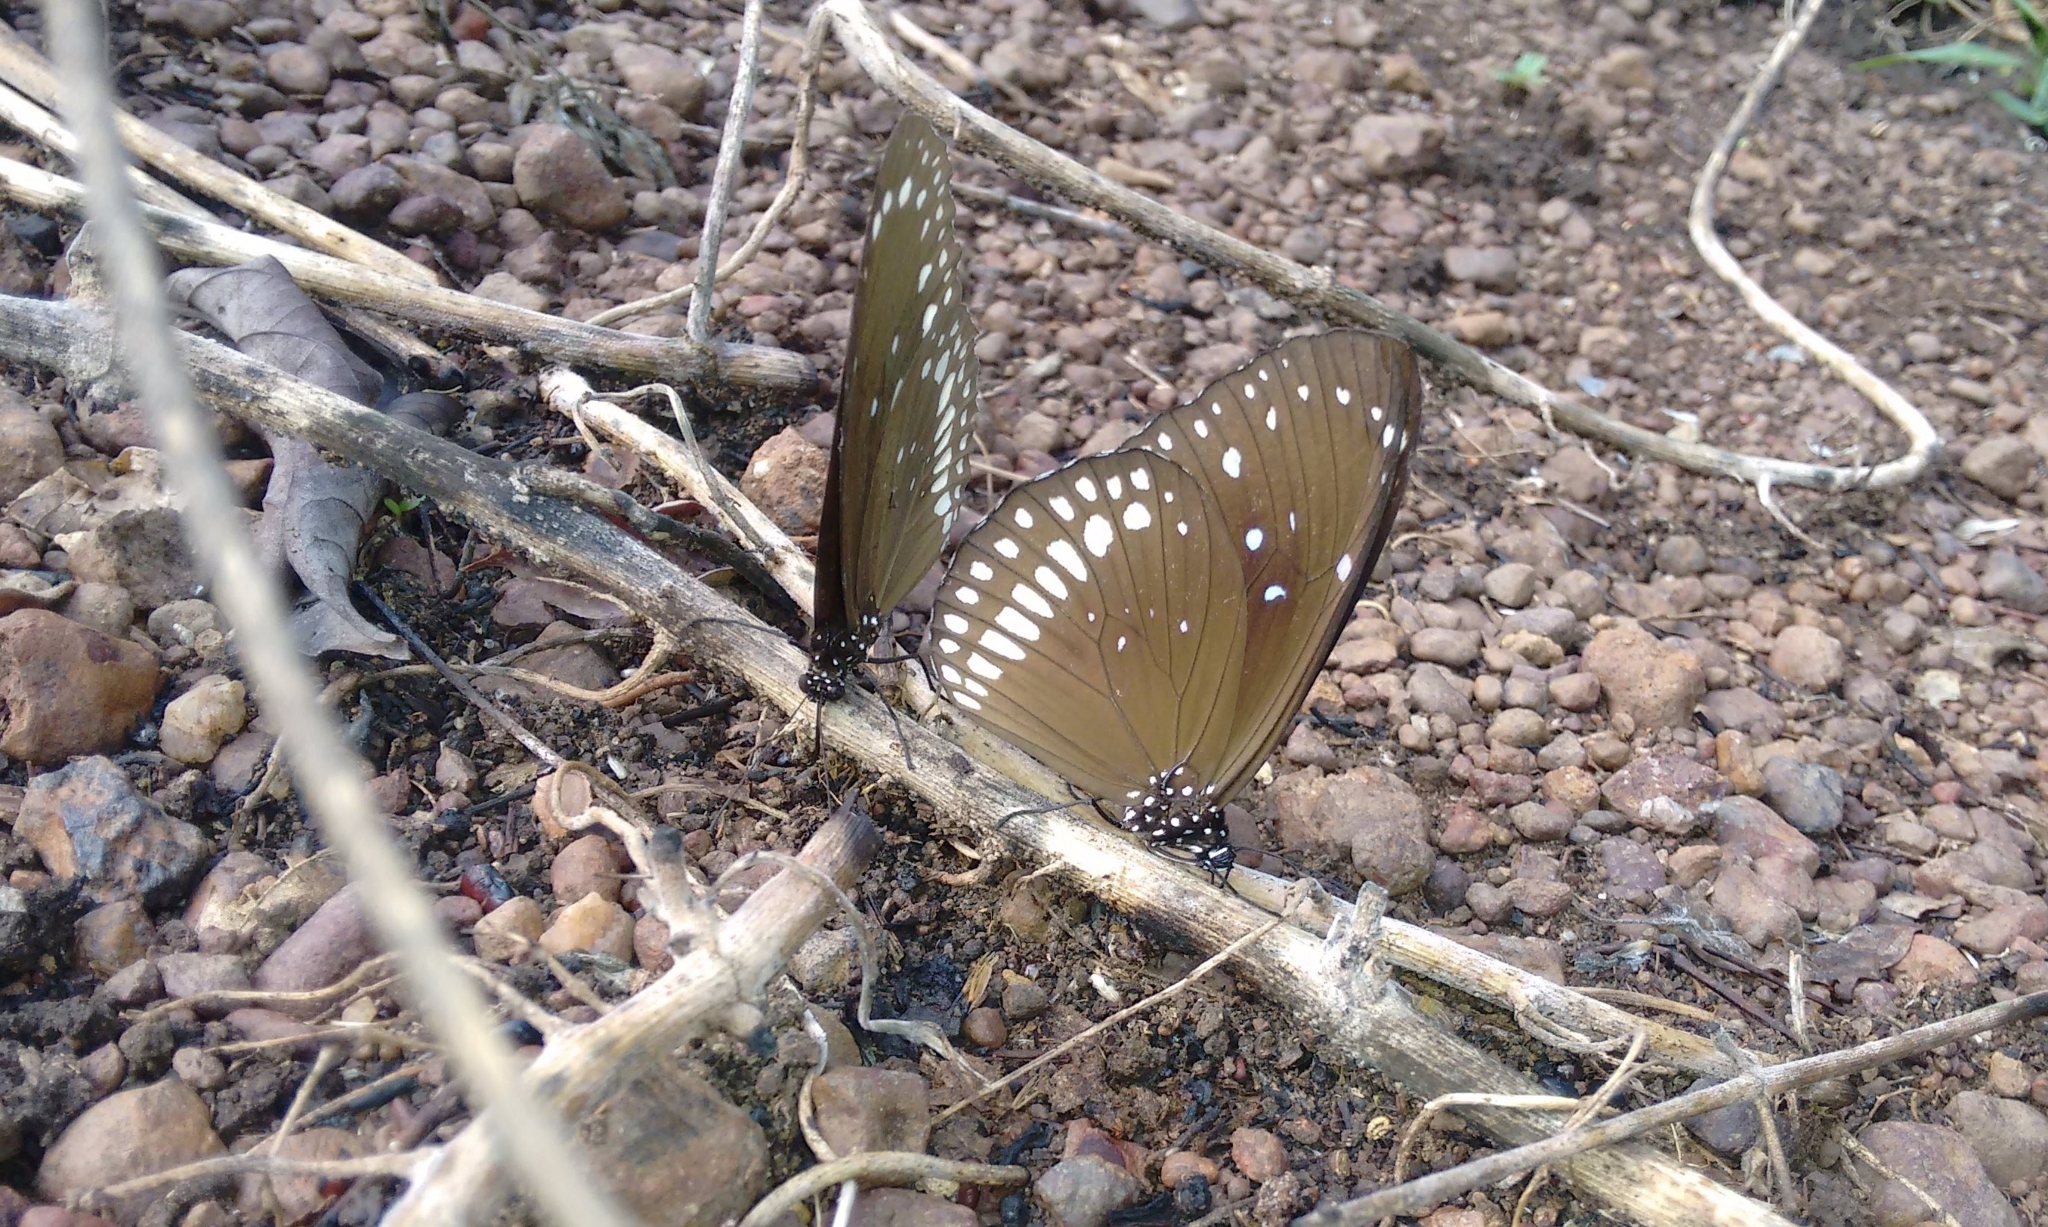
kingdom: Animalia
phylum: Arthropoda
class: Insecta
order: Lepidoptera
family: Nymphalidae
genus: Euploea
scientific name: Euploea core
